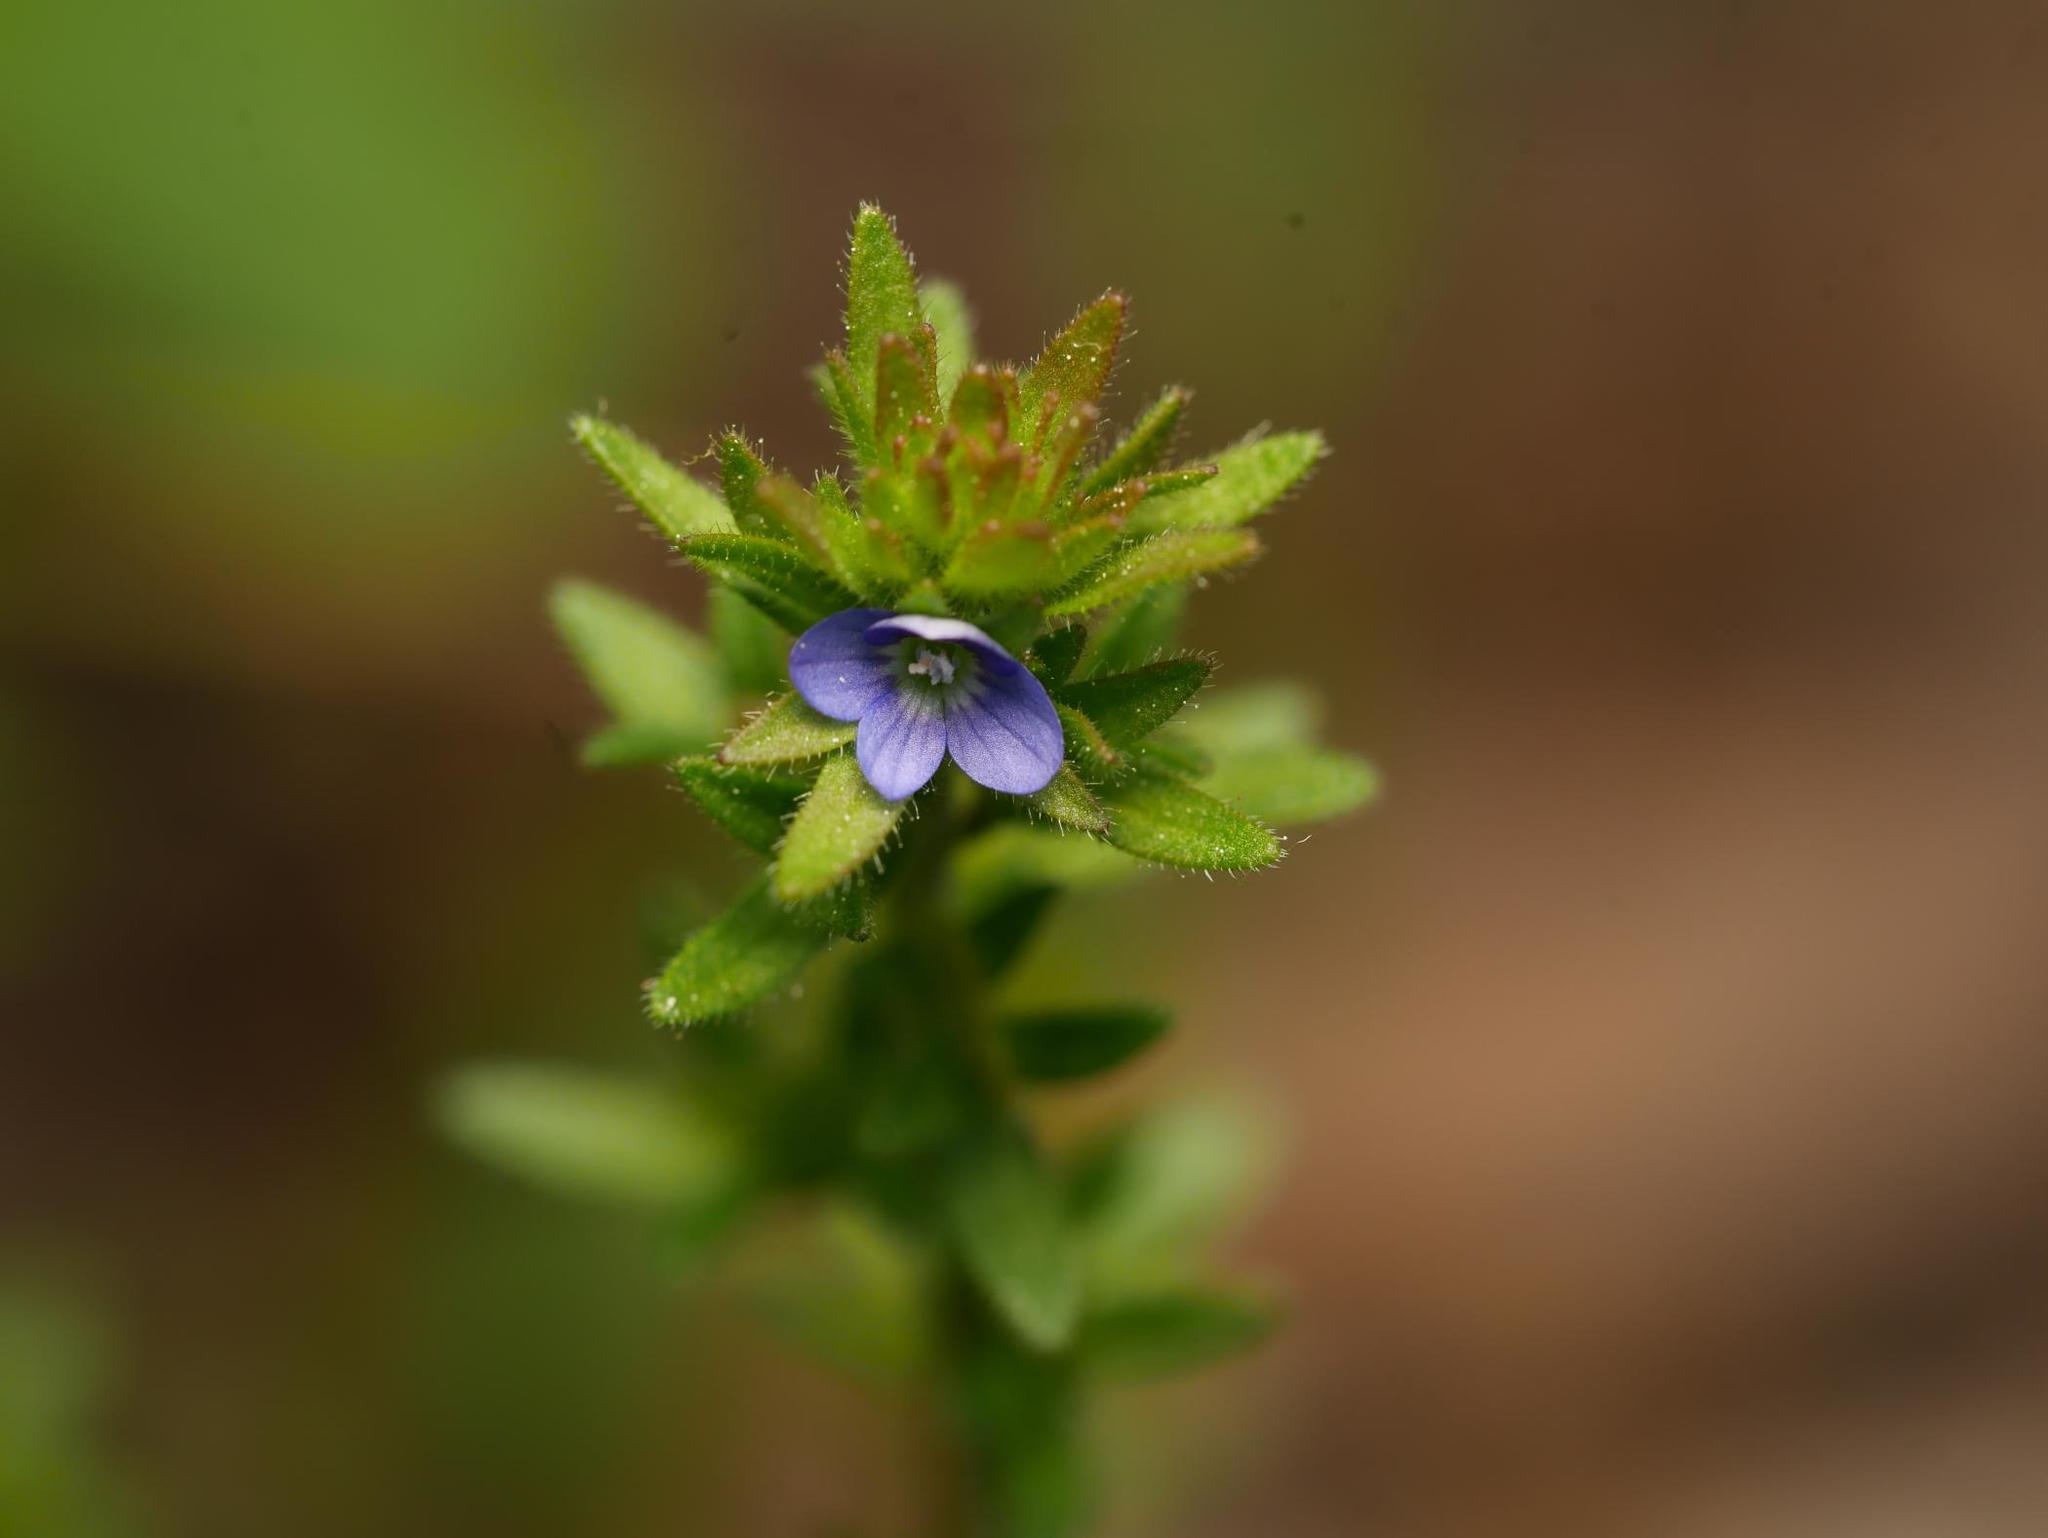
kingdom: Plantae
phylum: Tracheophyta
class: Magnoliopsida
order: Lamiales
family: Plantaginaceae
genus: Veronica
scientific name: Veronica arvensis
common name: Corn speedwell
